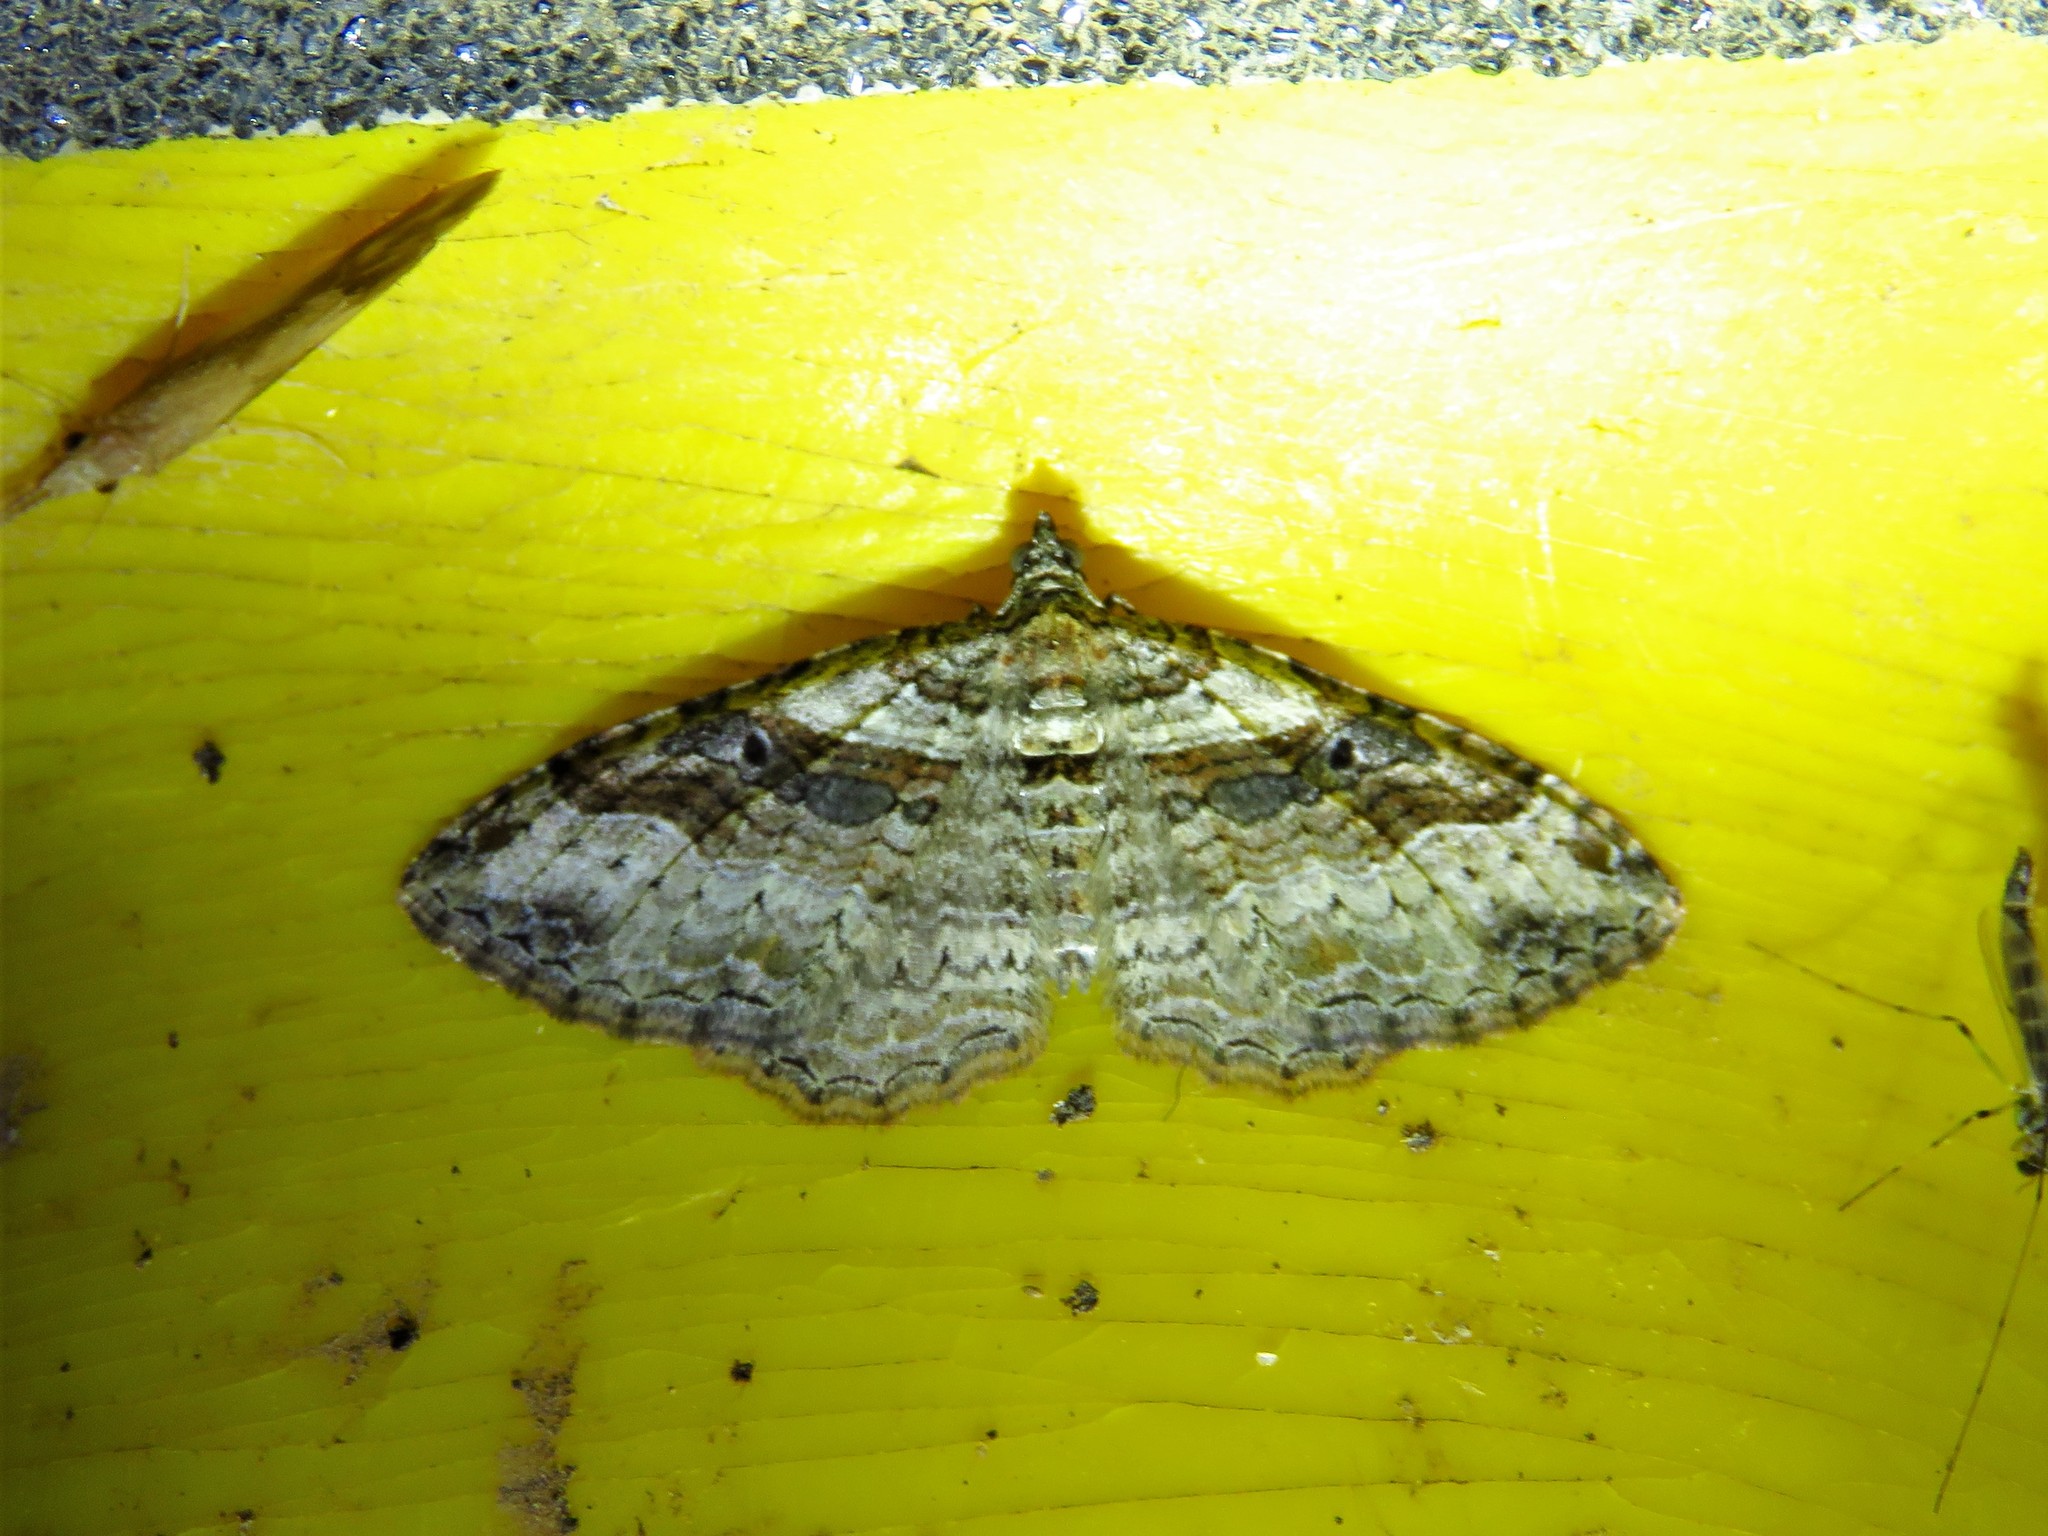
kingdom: Animalia
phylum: Arthropoda
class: Insecta
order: Lepidoptera
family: Geometridae
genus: Costaconvexa
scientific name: Costaconvexa centrostrigaria
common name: Bent-line carpet
